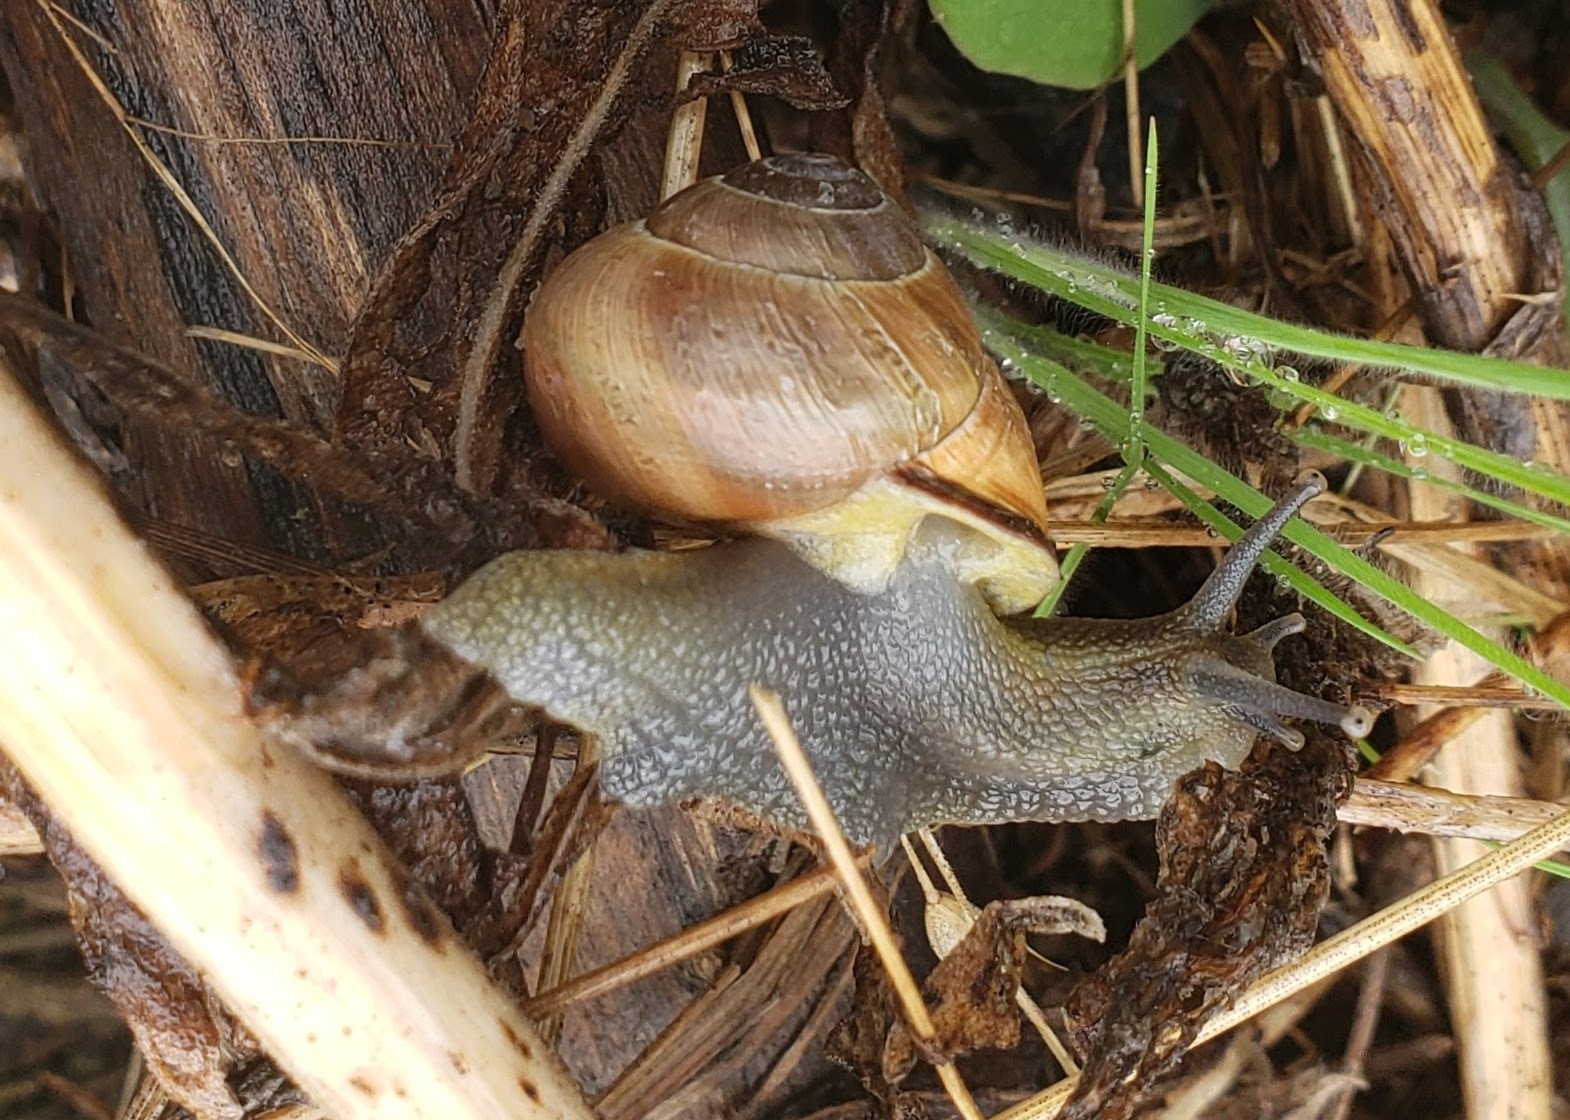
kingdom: Animalia
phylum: Mollusca
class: Gastropoda
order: Stylommatophora
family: Helicidae
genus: Cepaea
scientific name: Cepaea nemoralis
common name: Grovesnail
